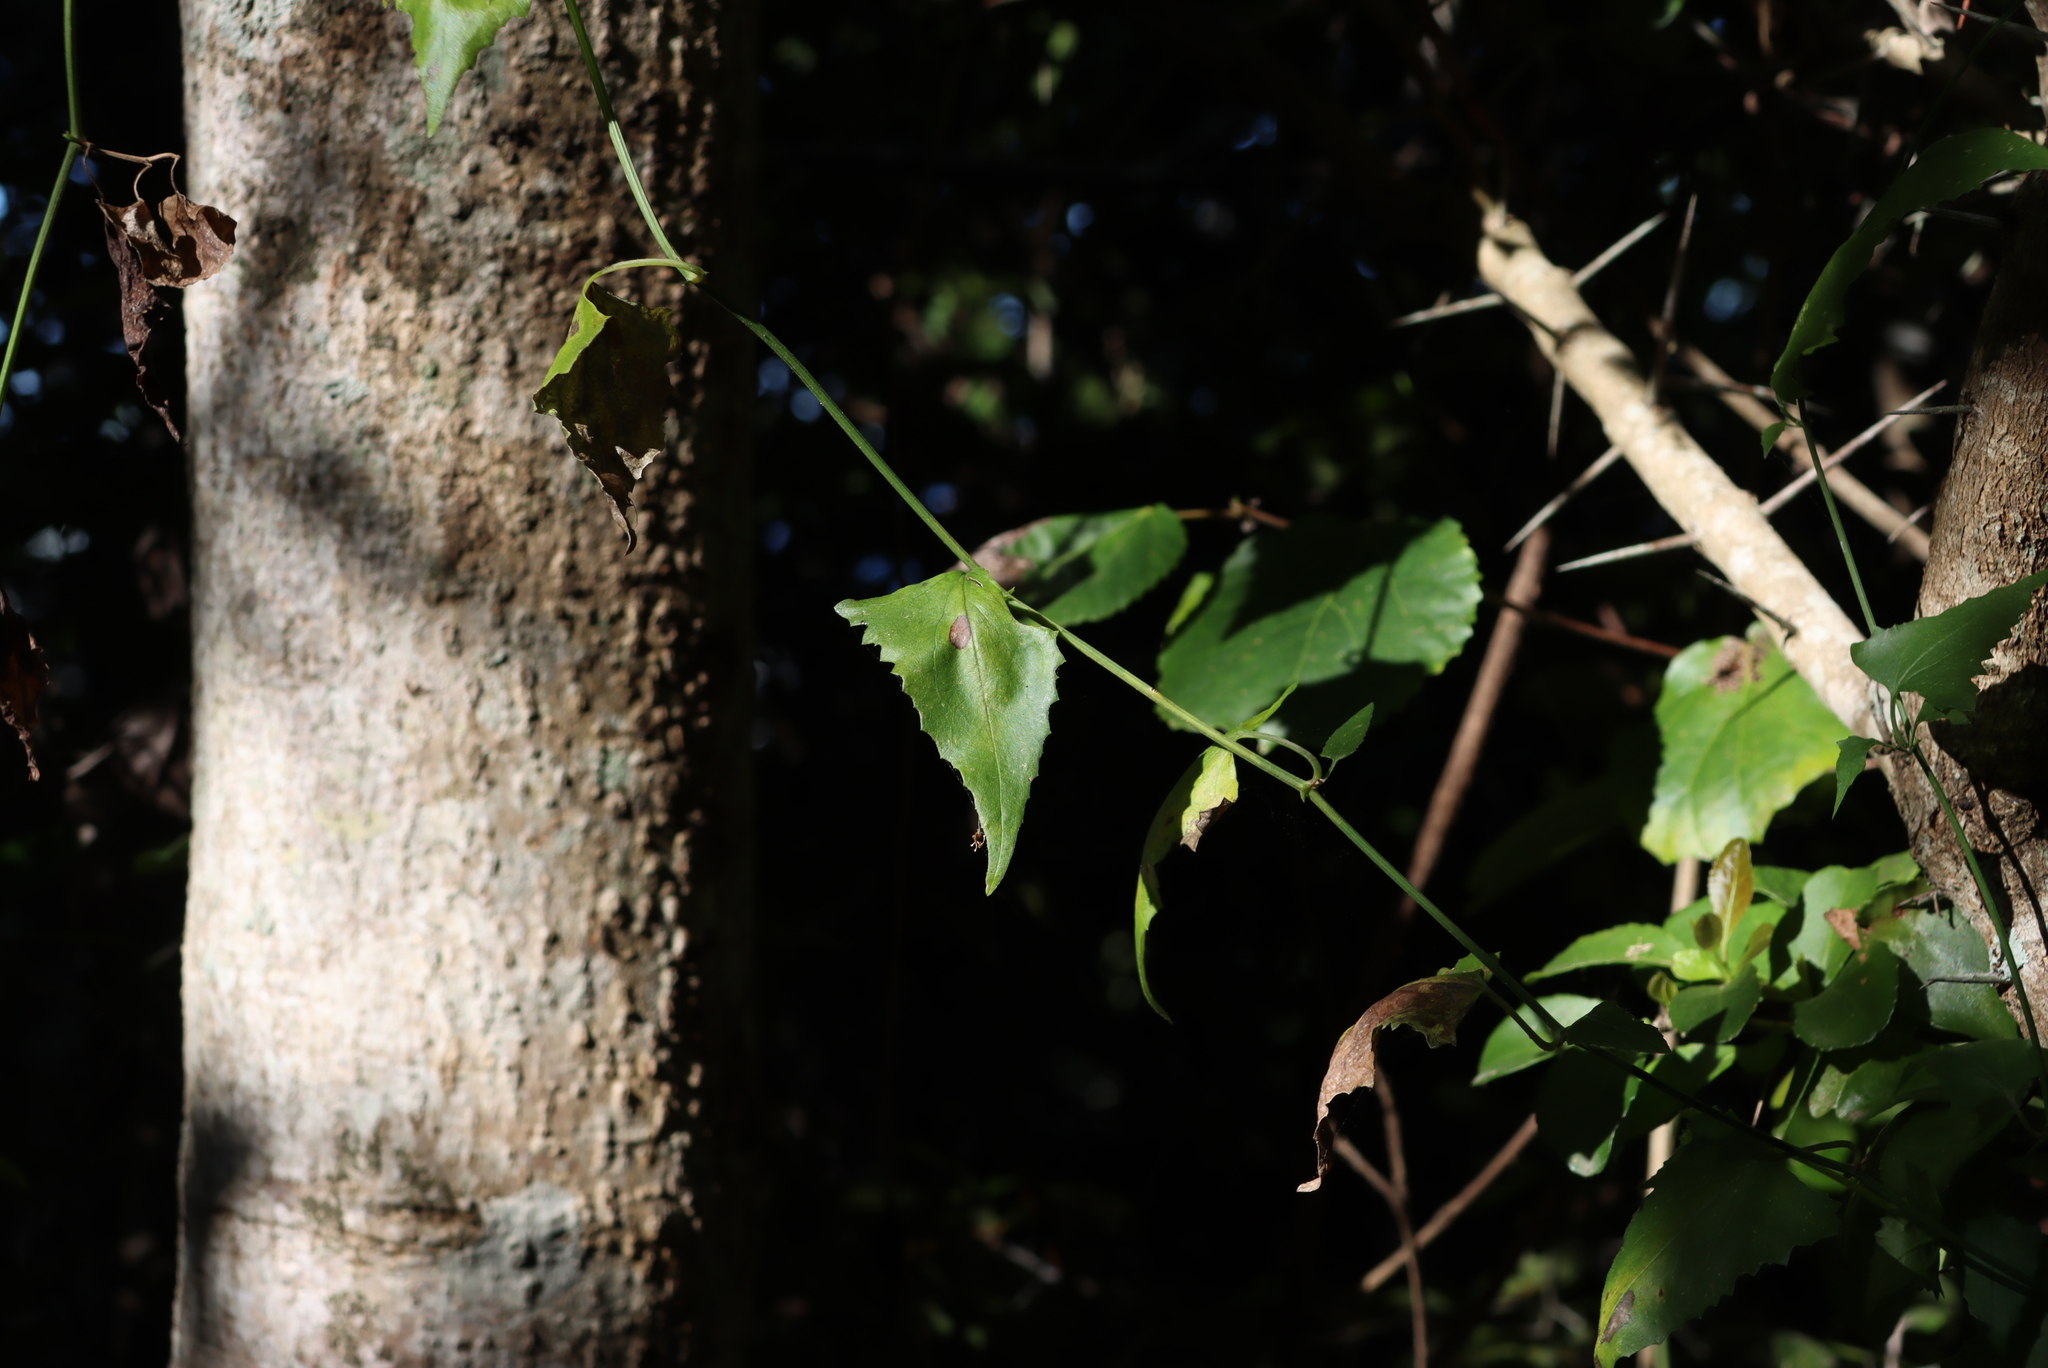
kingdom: Plantae
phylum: Tracheophyta
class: Magnoliopsida
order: Ranunculales
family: Ranunculaceae
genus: Clematis
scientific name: Clematis brachiata
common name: Traveler's-joy
